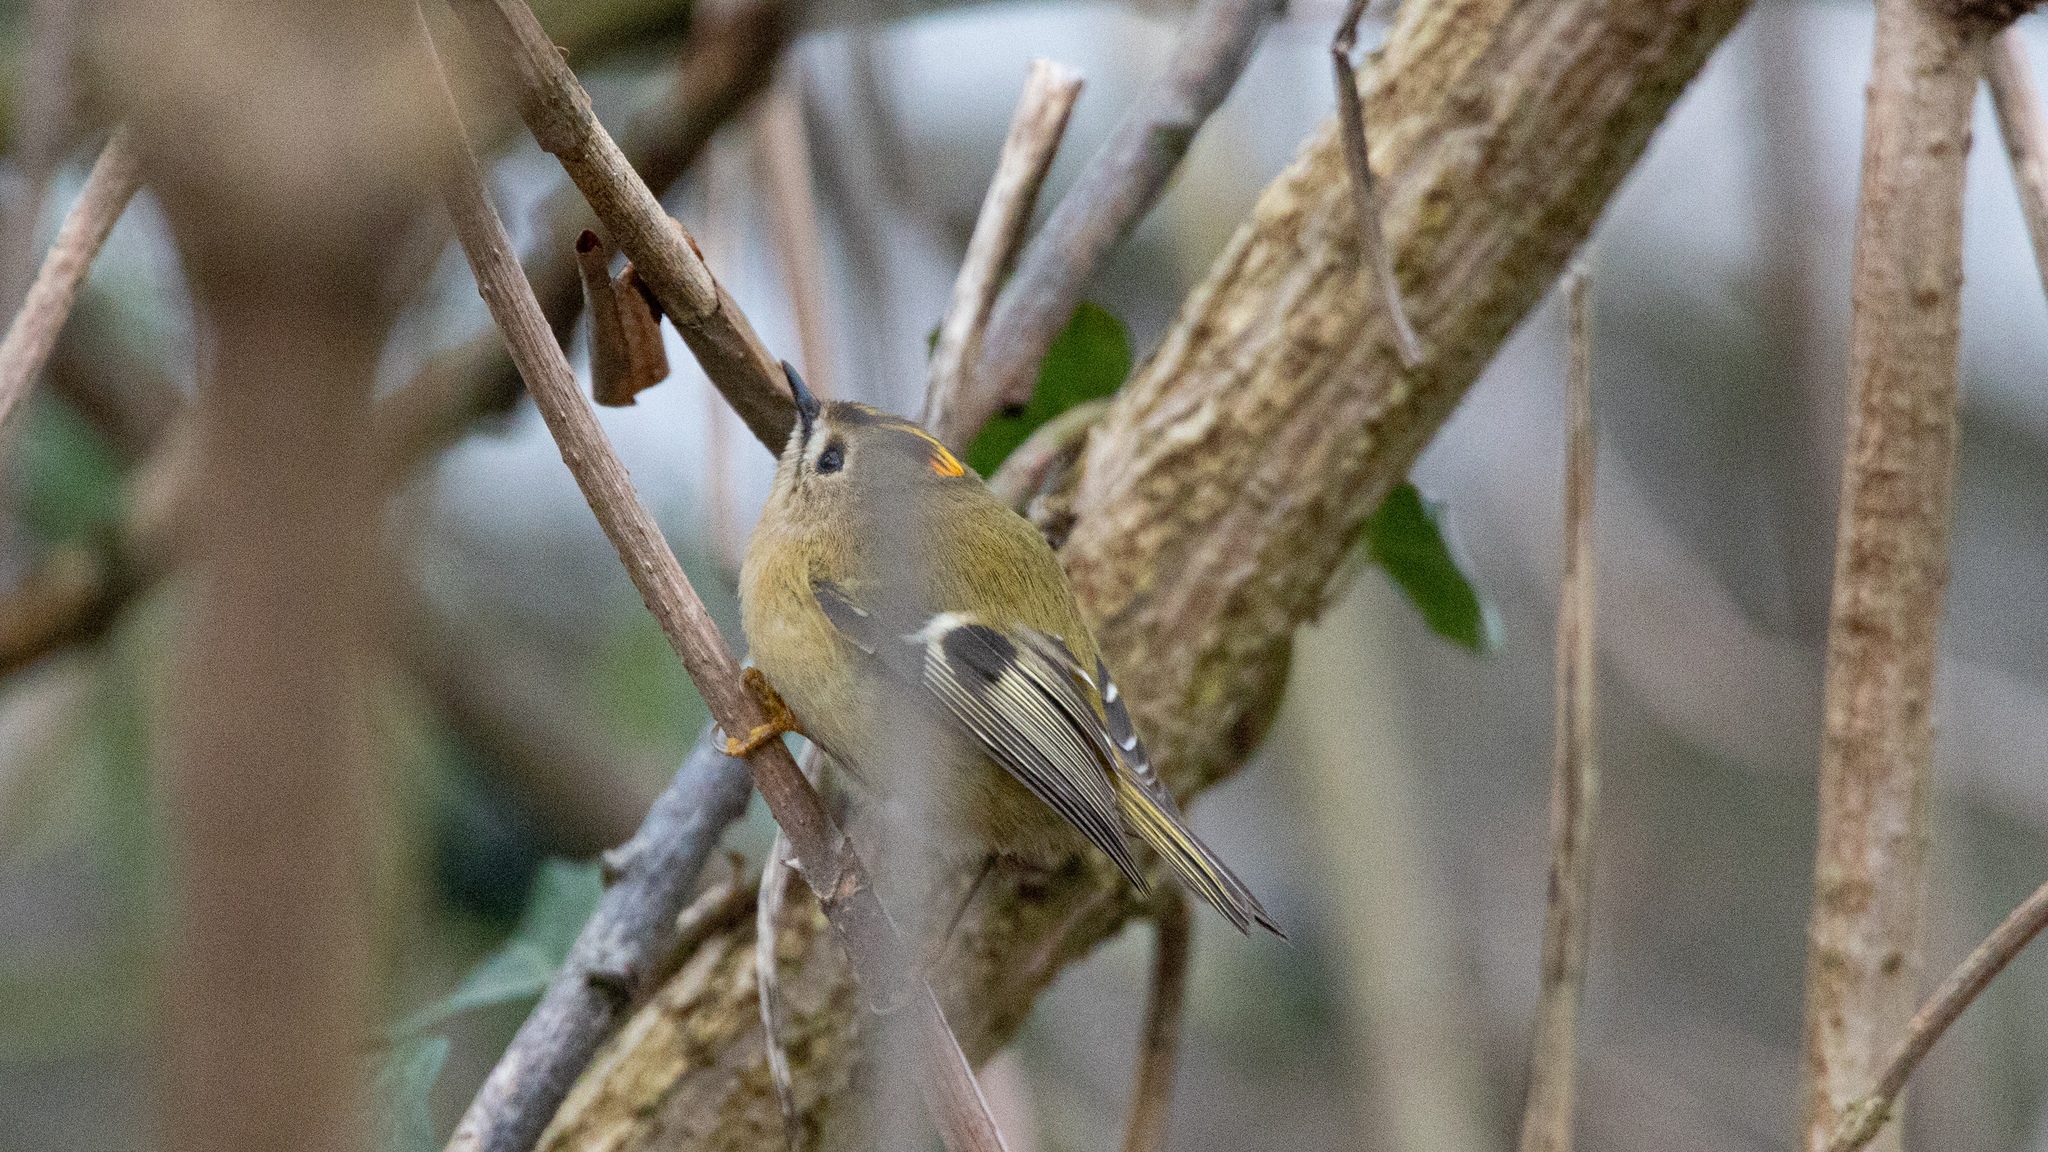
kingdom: Animalia
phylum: Chordata
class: Aves
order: Passeriformes
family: Regulidae
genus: Regulus
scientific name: Regulus regulus
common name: Goldcrest
